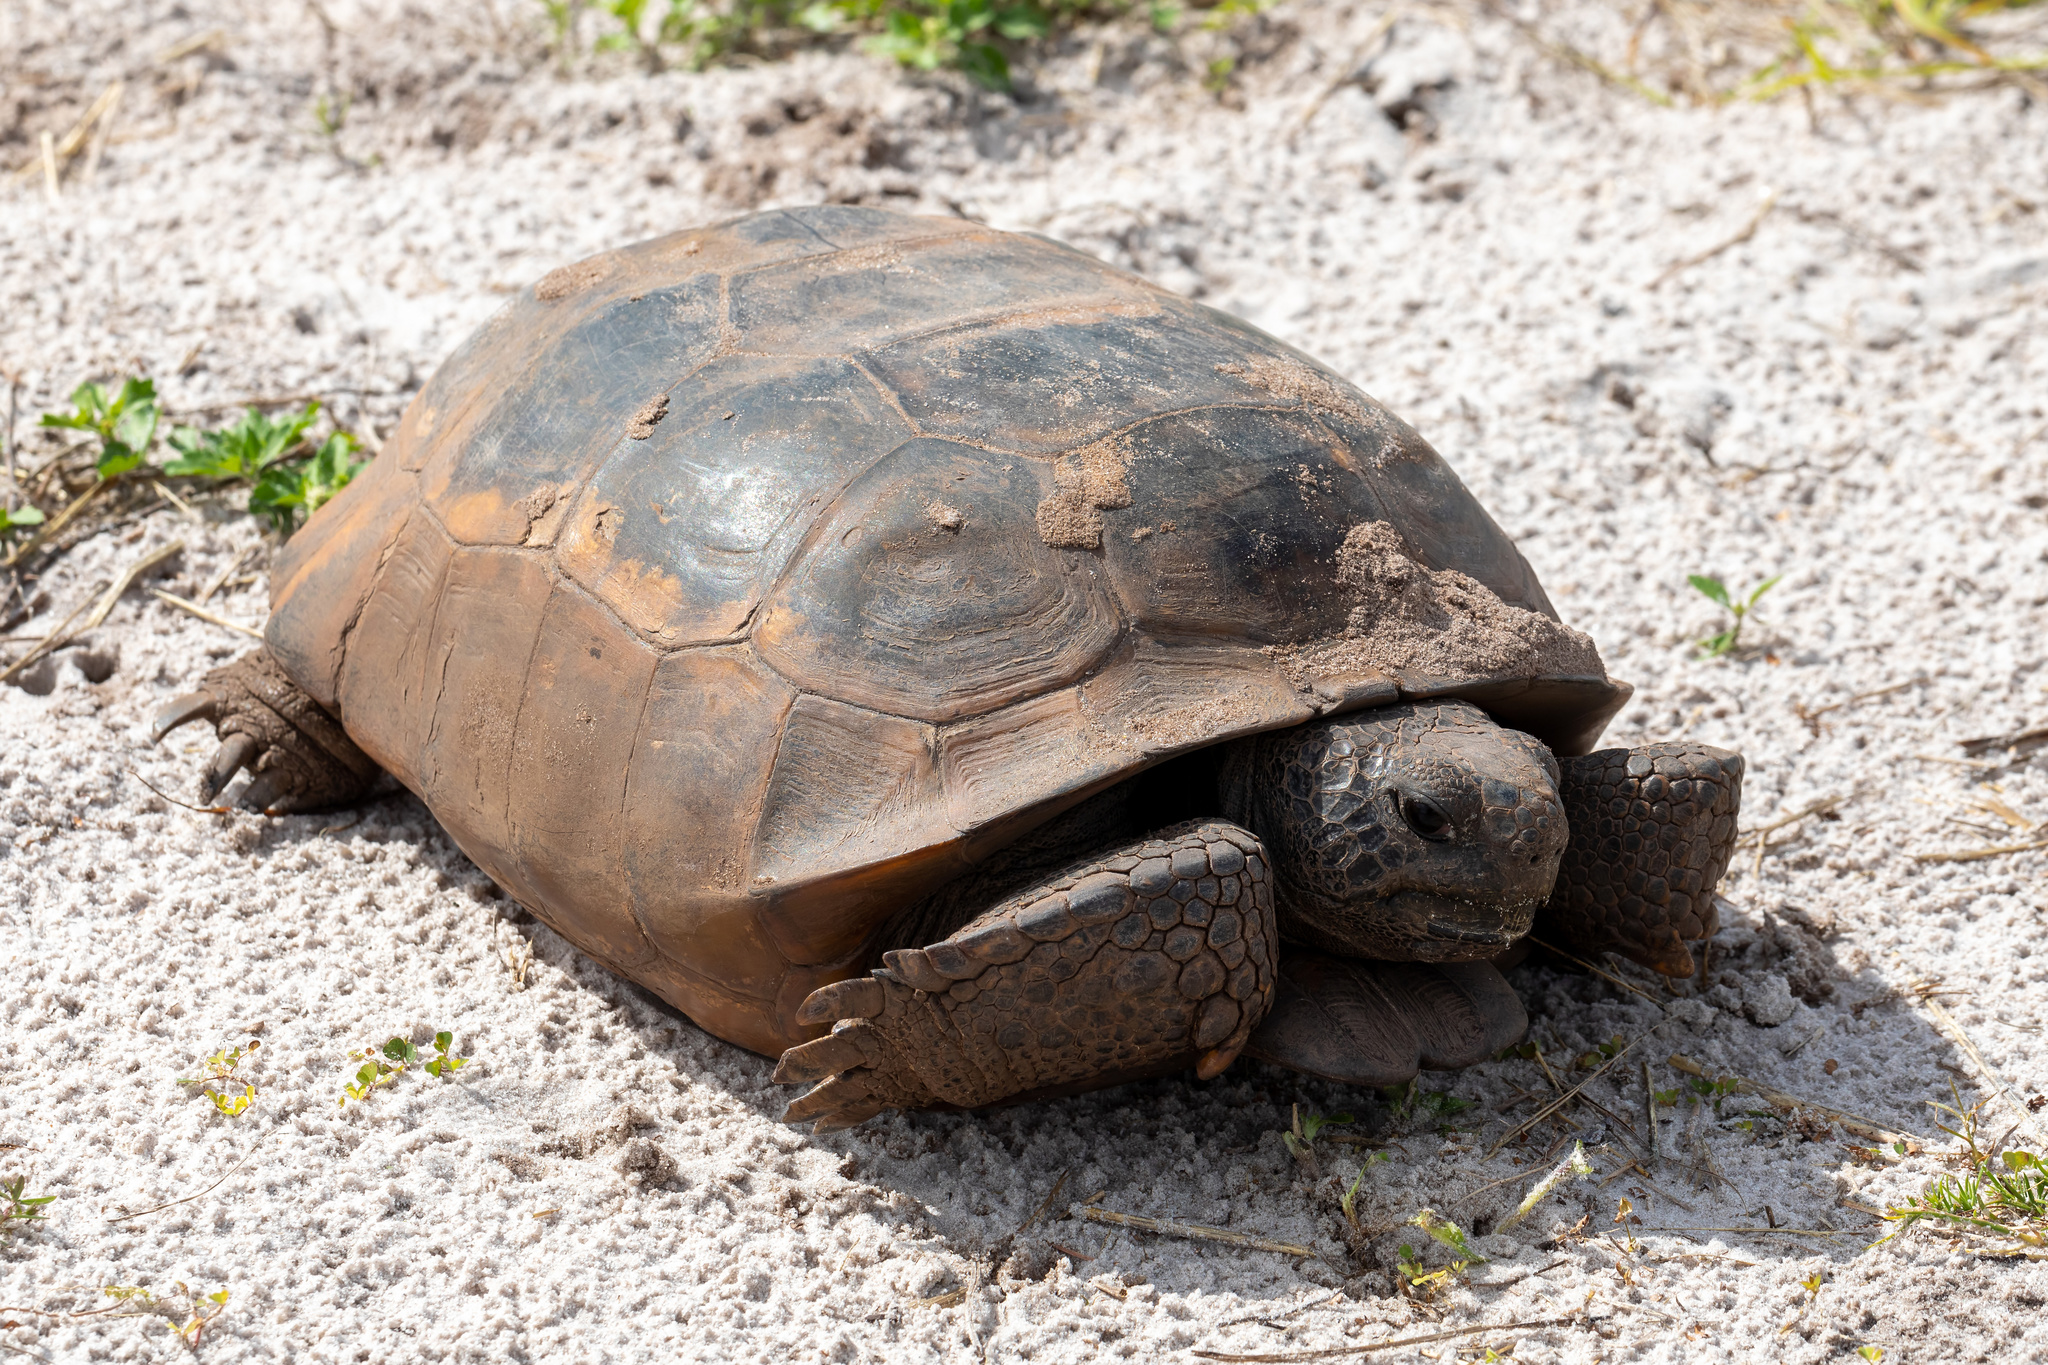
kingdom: Animalia
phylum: Chordata
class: Testudines
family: Testudinidae
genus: Gopherus
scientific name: Gopherus polyphemus
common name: Florida gopher tortoise
